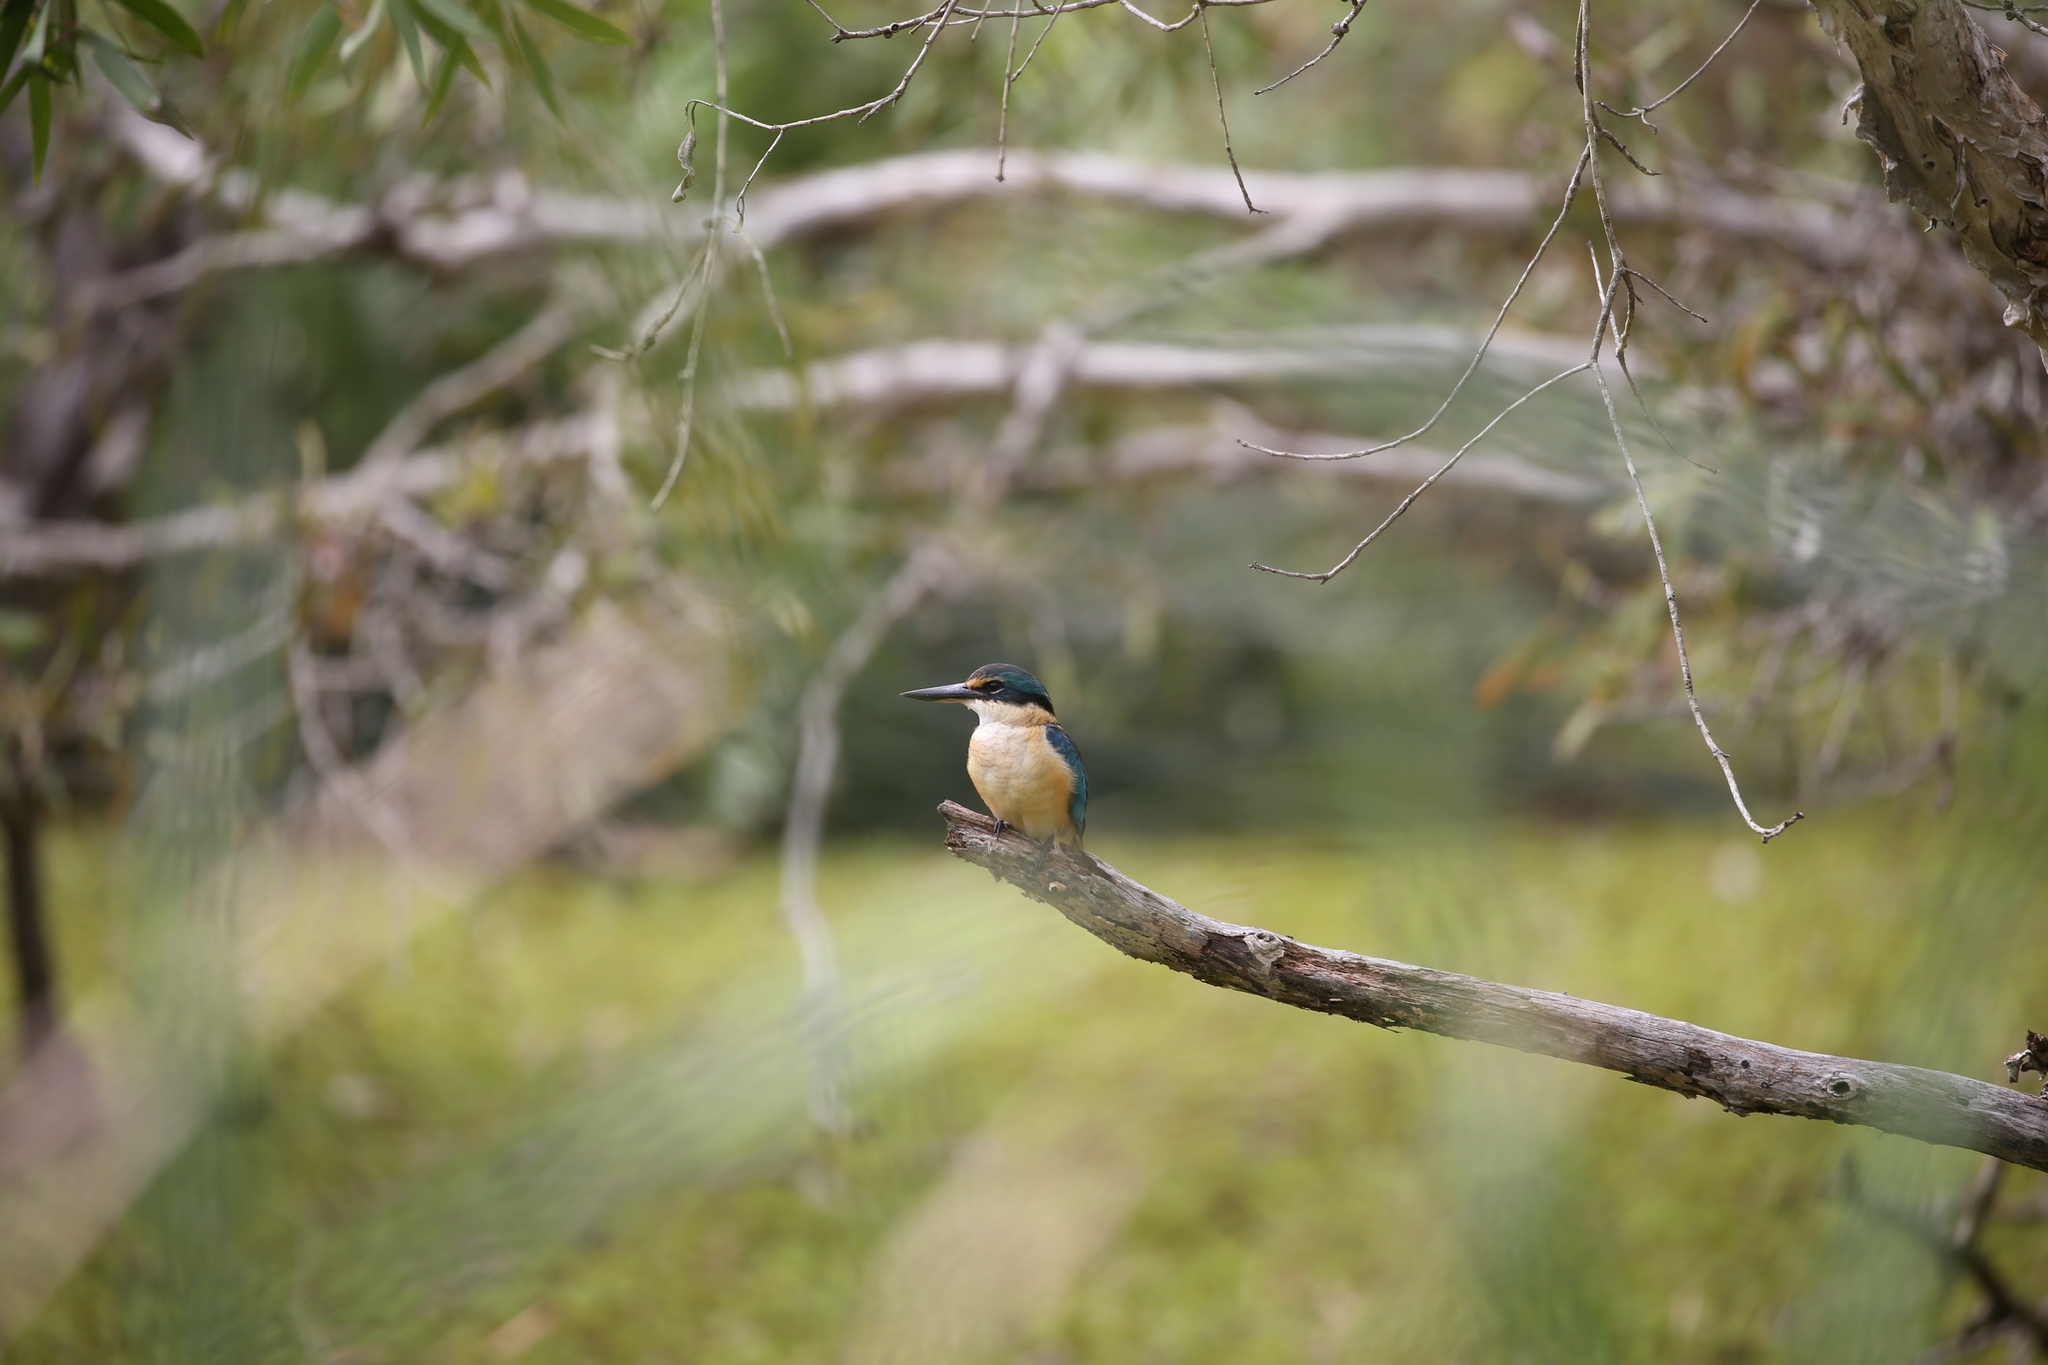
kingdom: Animalia
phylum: Chordata
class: Aves
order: Coraciiformes
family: Alcedinidae
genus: Todiramphus
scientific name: Todiramphus sanctus
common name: Sacred kingfisher
